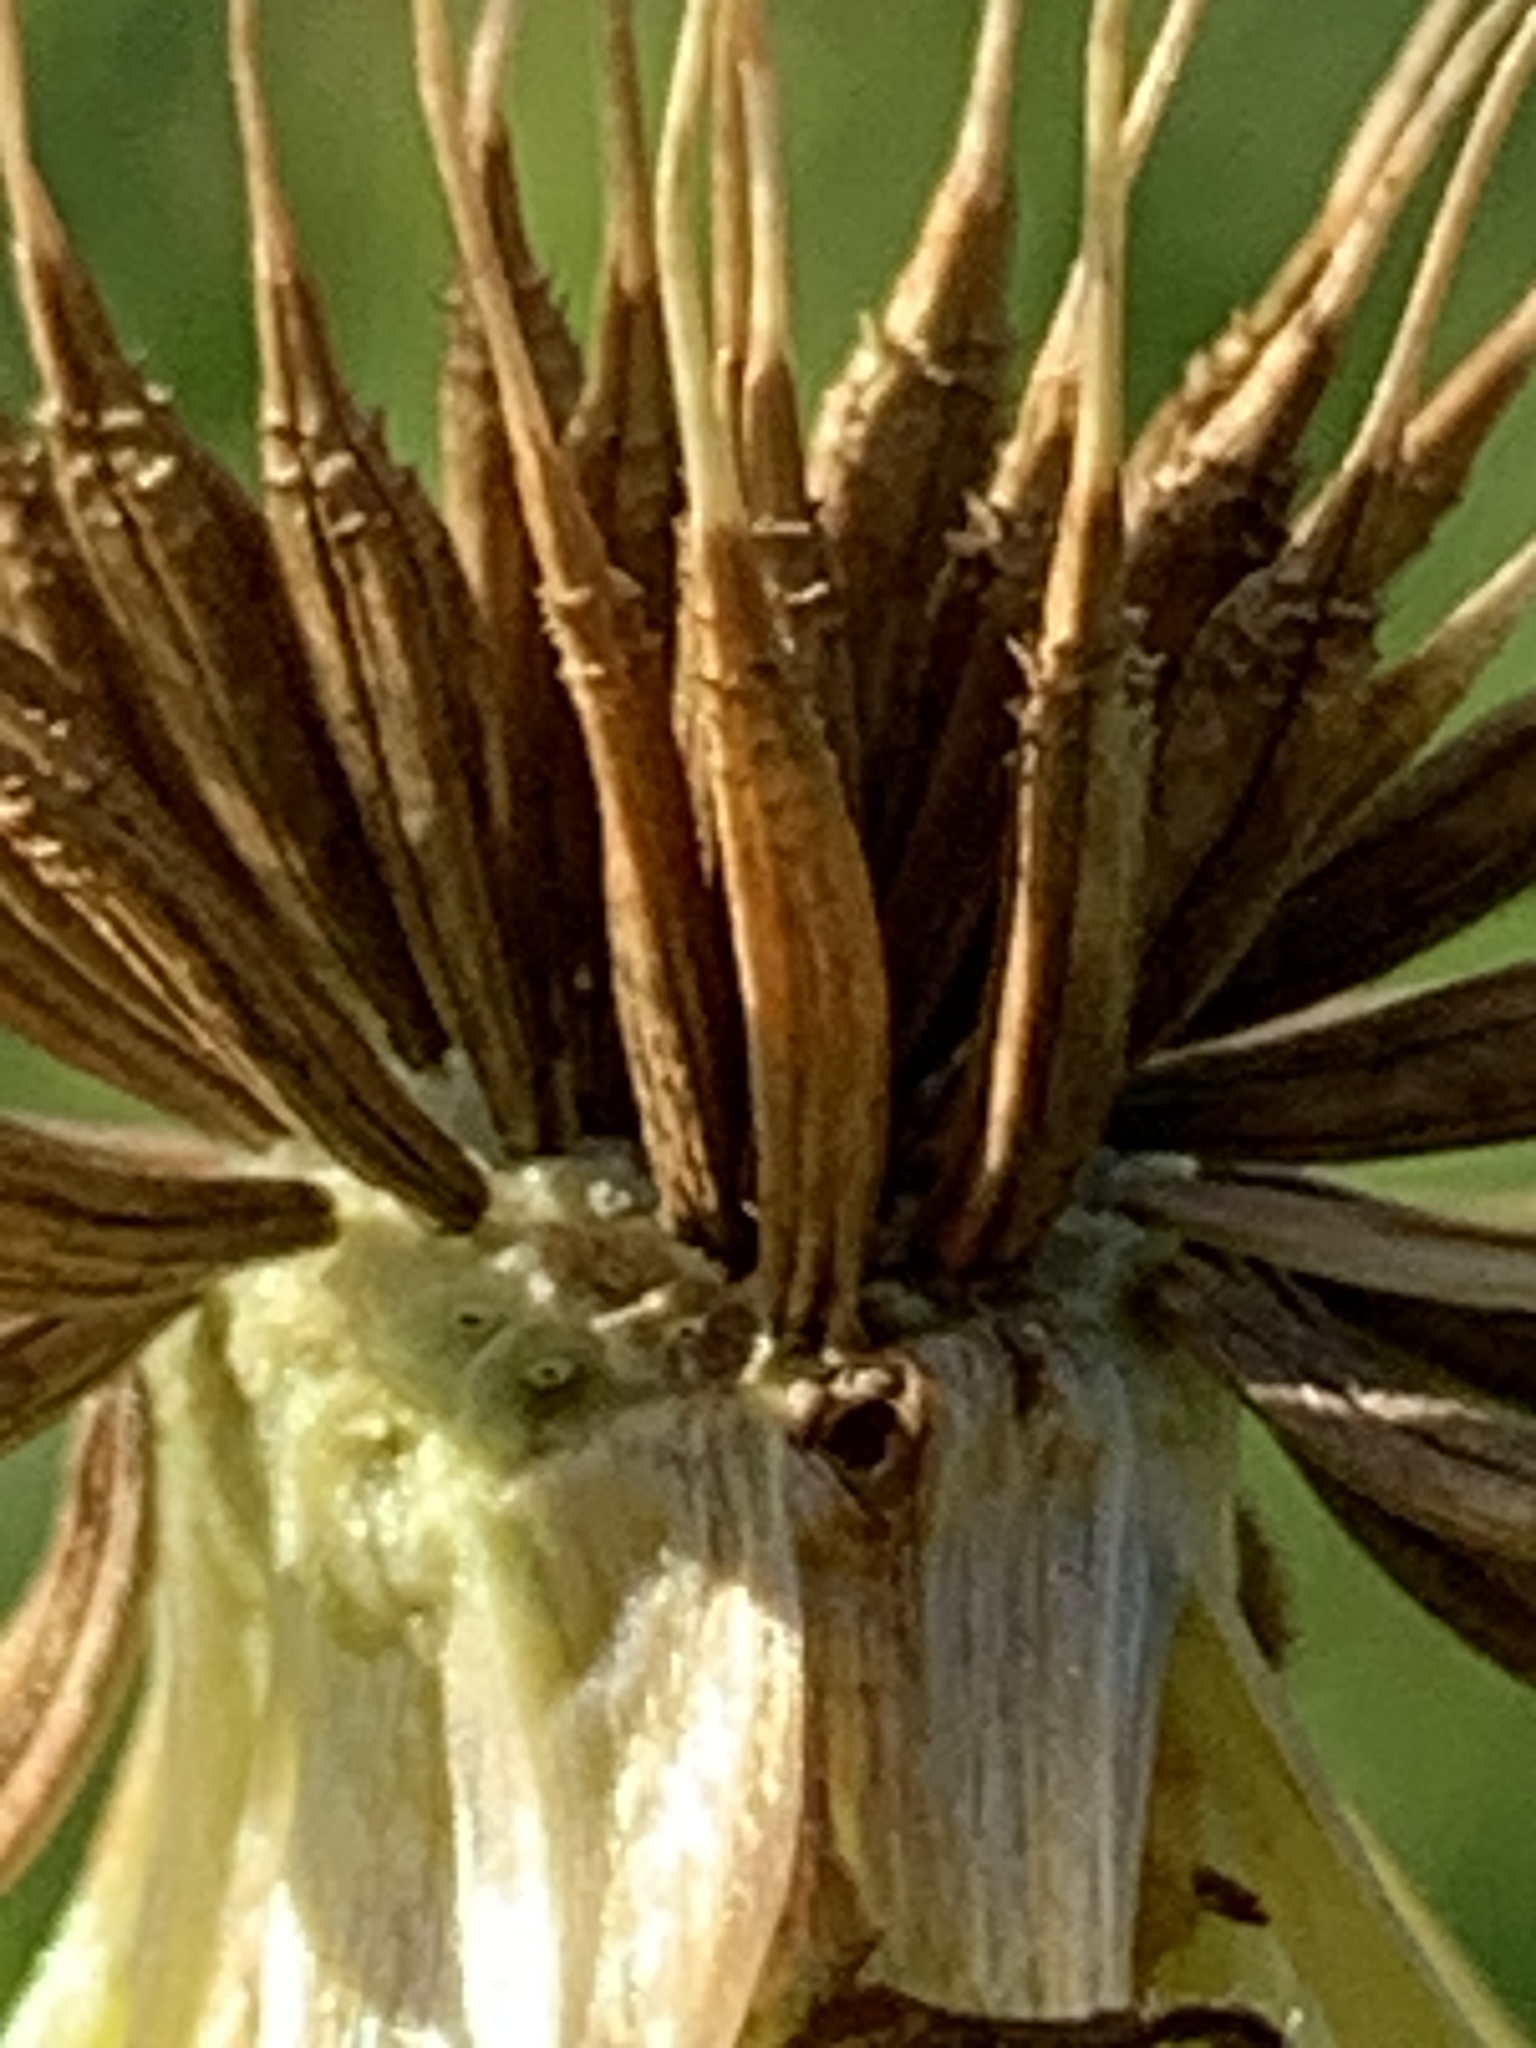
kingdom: Plantae
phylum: Tracheophyta
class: Magnoliopsida
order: Asterales
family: Asteraceae
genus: Taraxacum
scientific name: Taraxacum officinale
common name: Common dandelion
